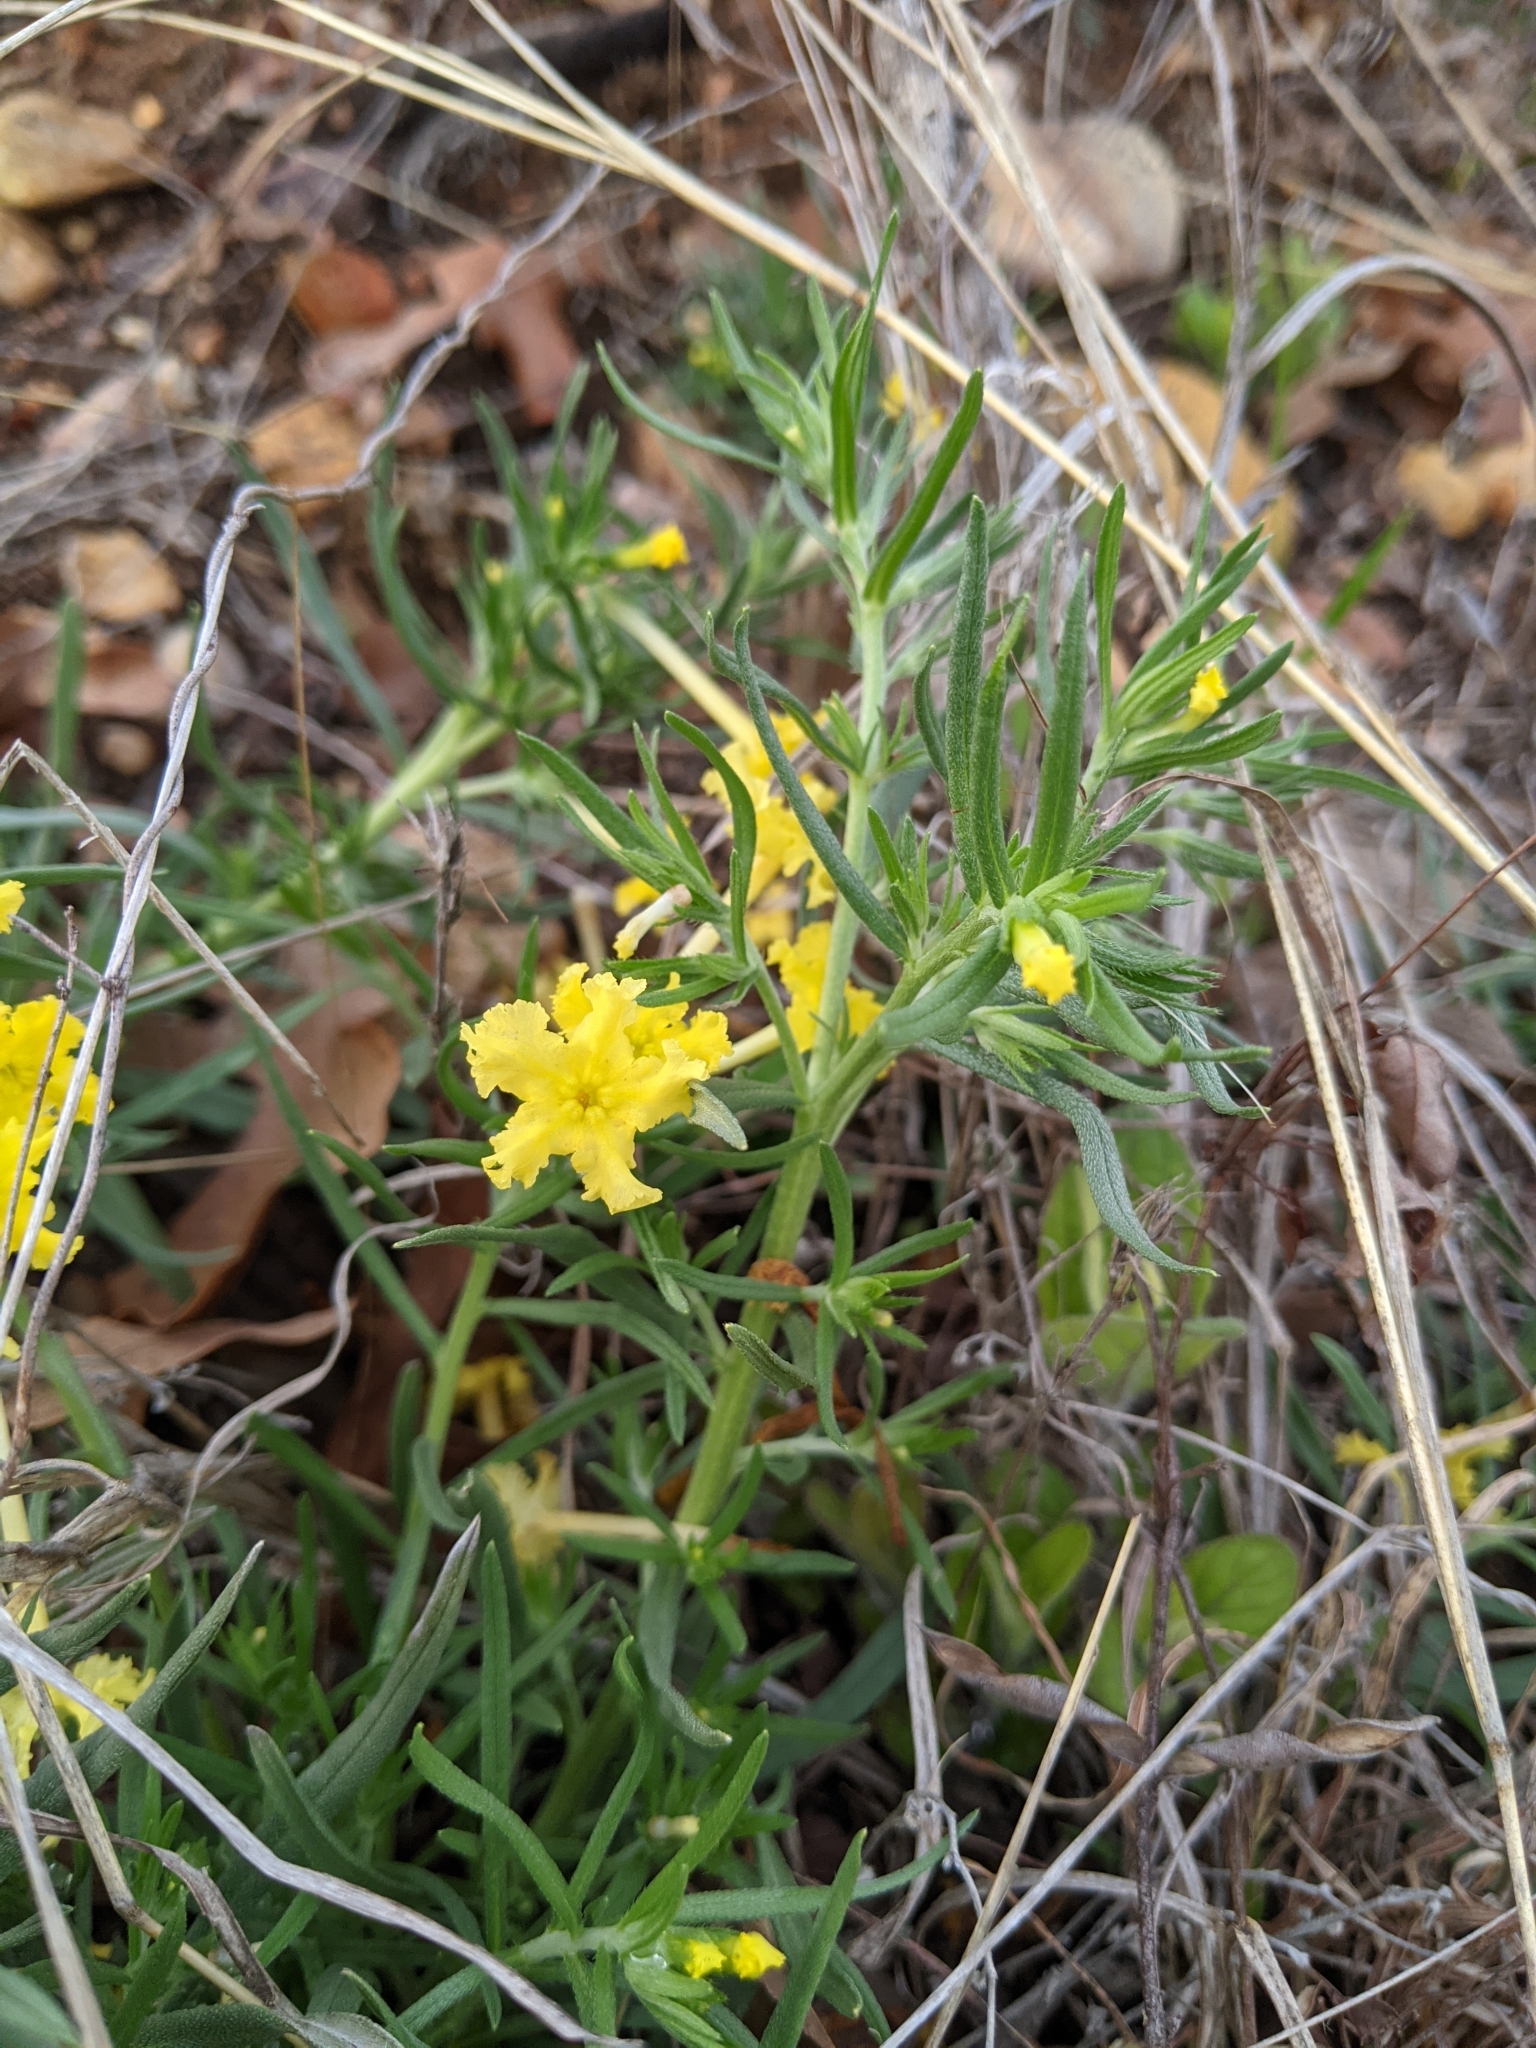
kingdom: Plantae
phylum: Tracheophyta
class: Magnoliopsida
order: Boraginales
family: Boraginaceae
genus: Lithospermum
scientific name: Lithospermum incisum
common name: Fringed gromwell
